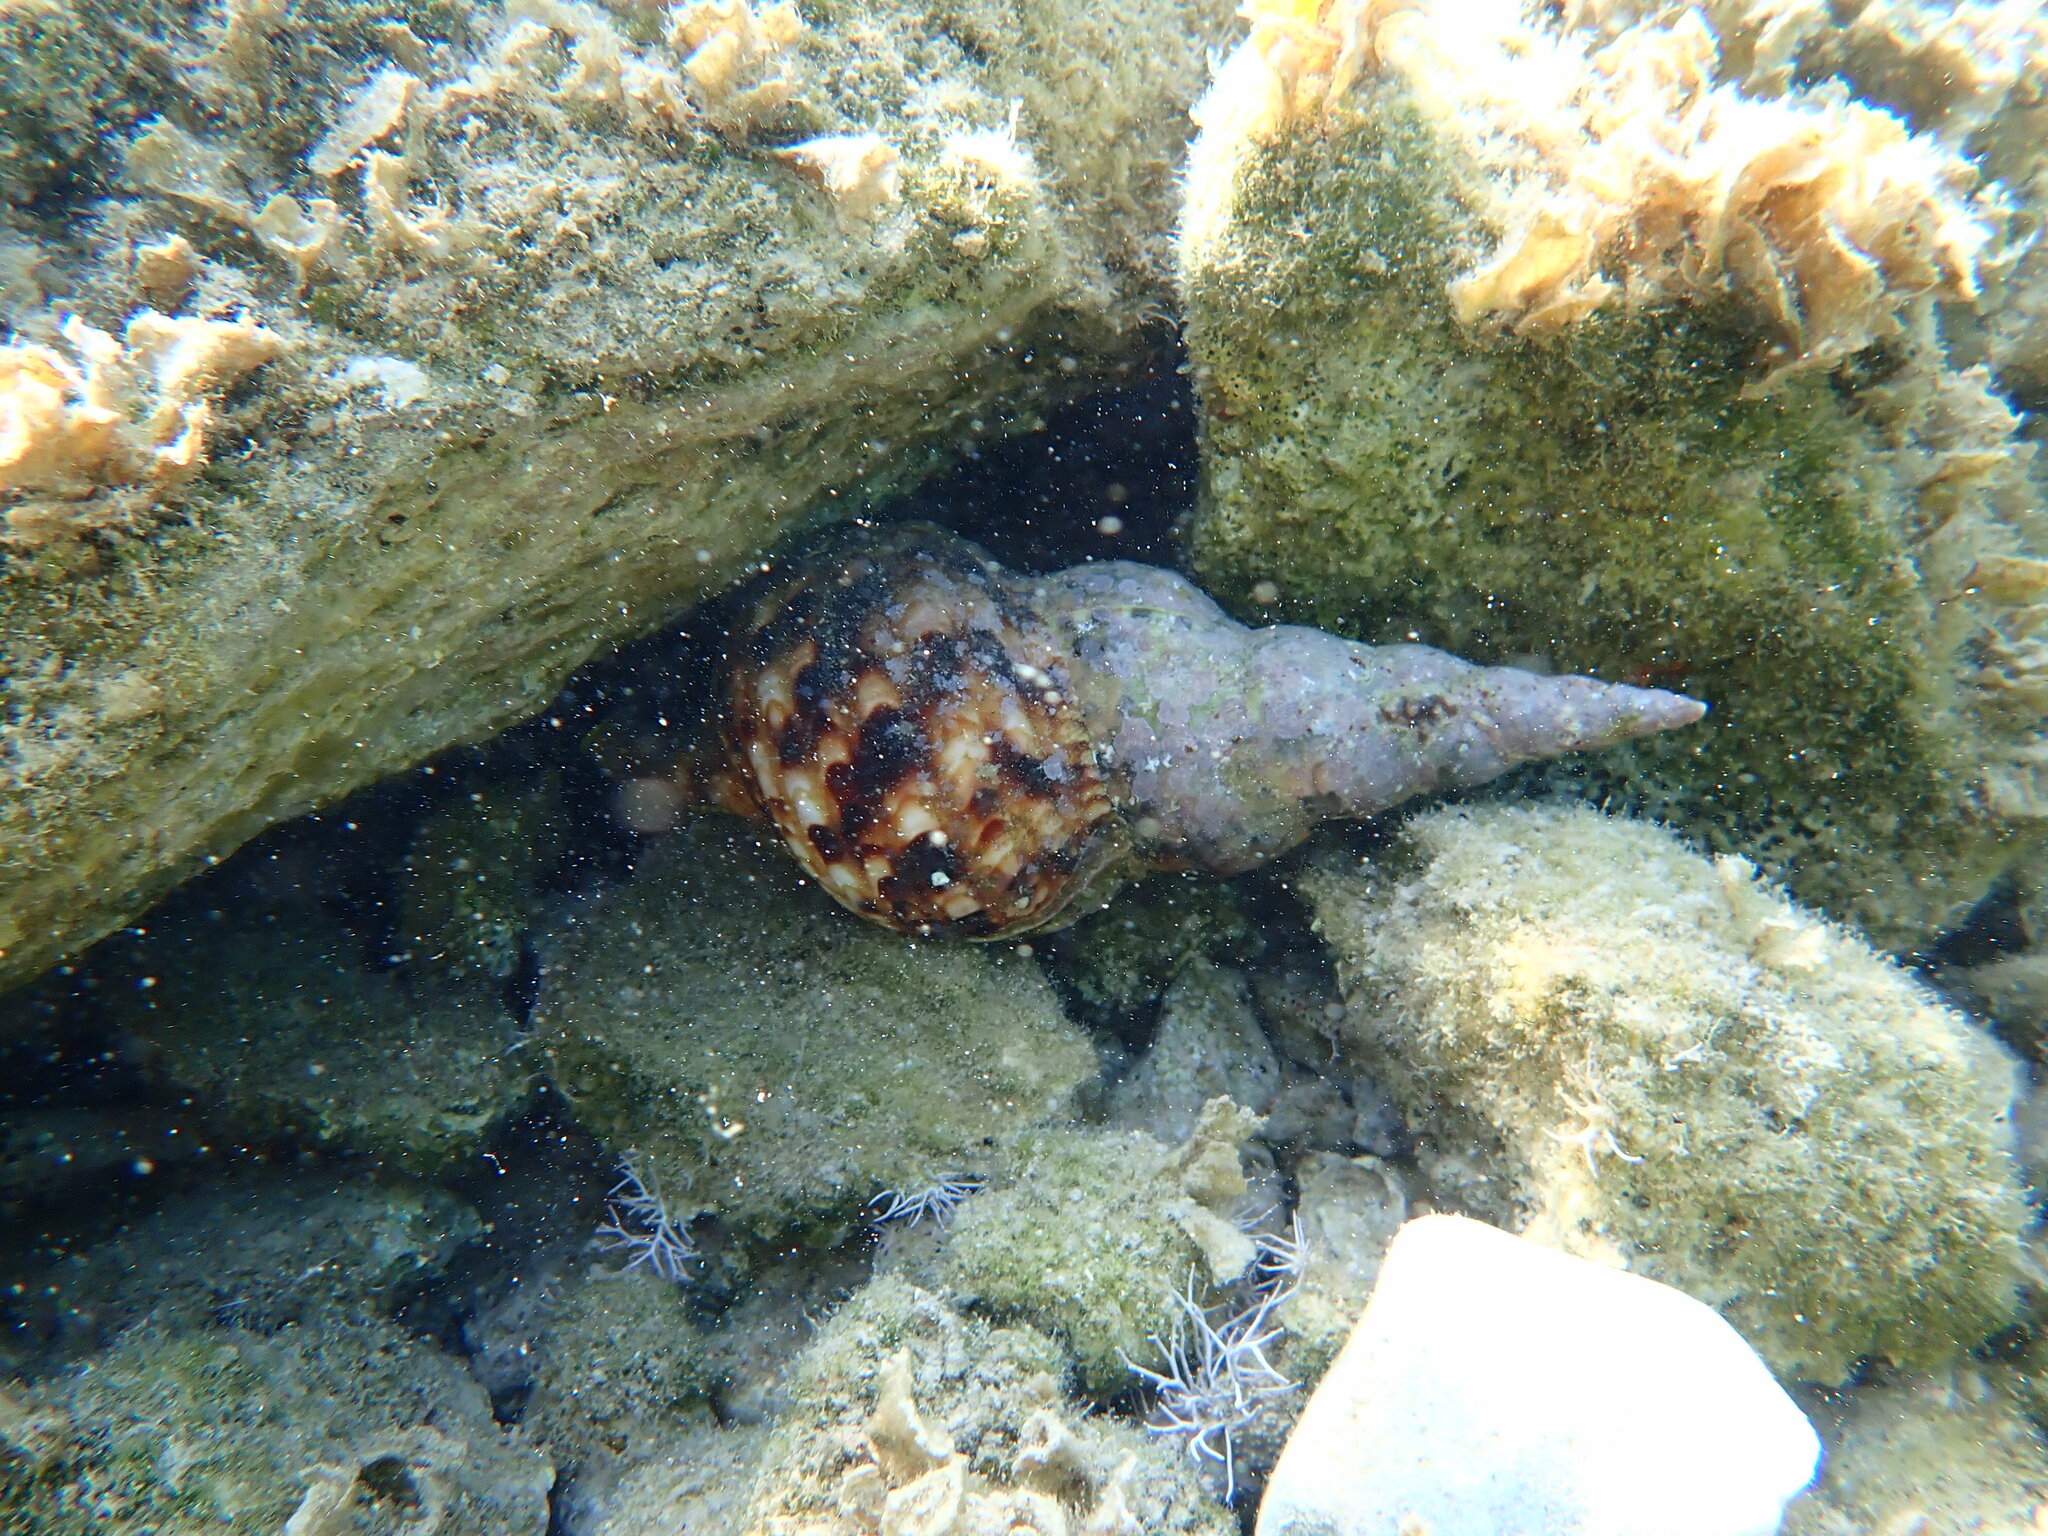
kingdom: Animalia
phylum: Mollusca
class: Gastropoda
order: Littorinimorpha
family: Charoniidae
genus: Charonia
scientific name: Charonia variegata
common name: Atlantic triton
